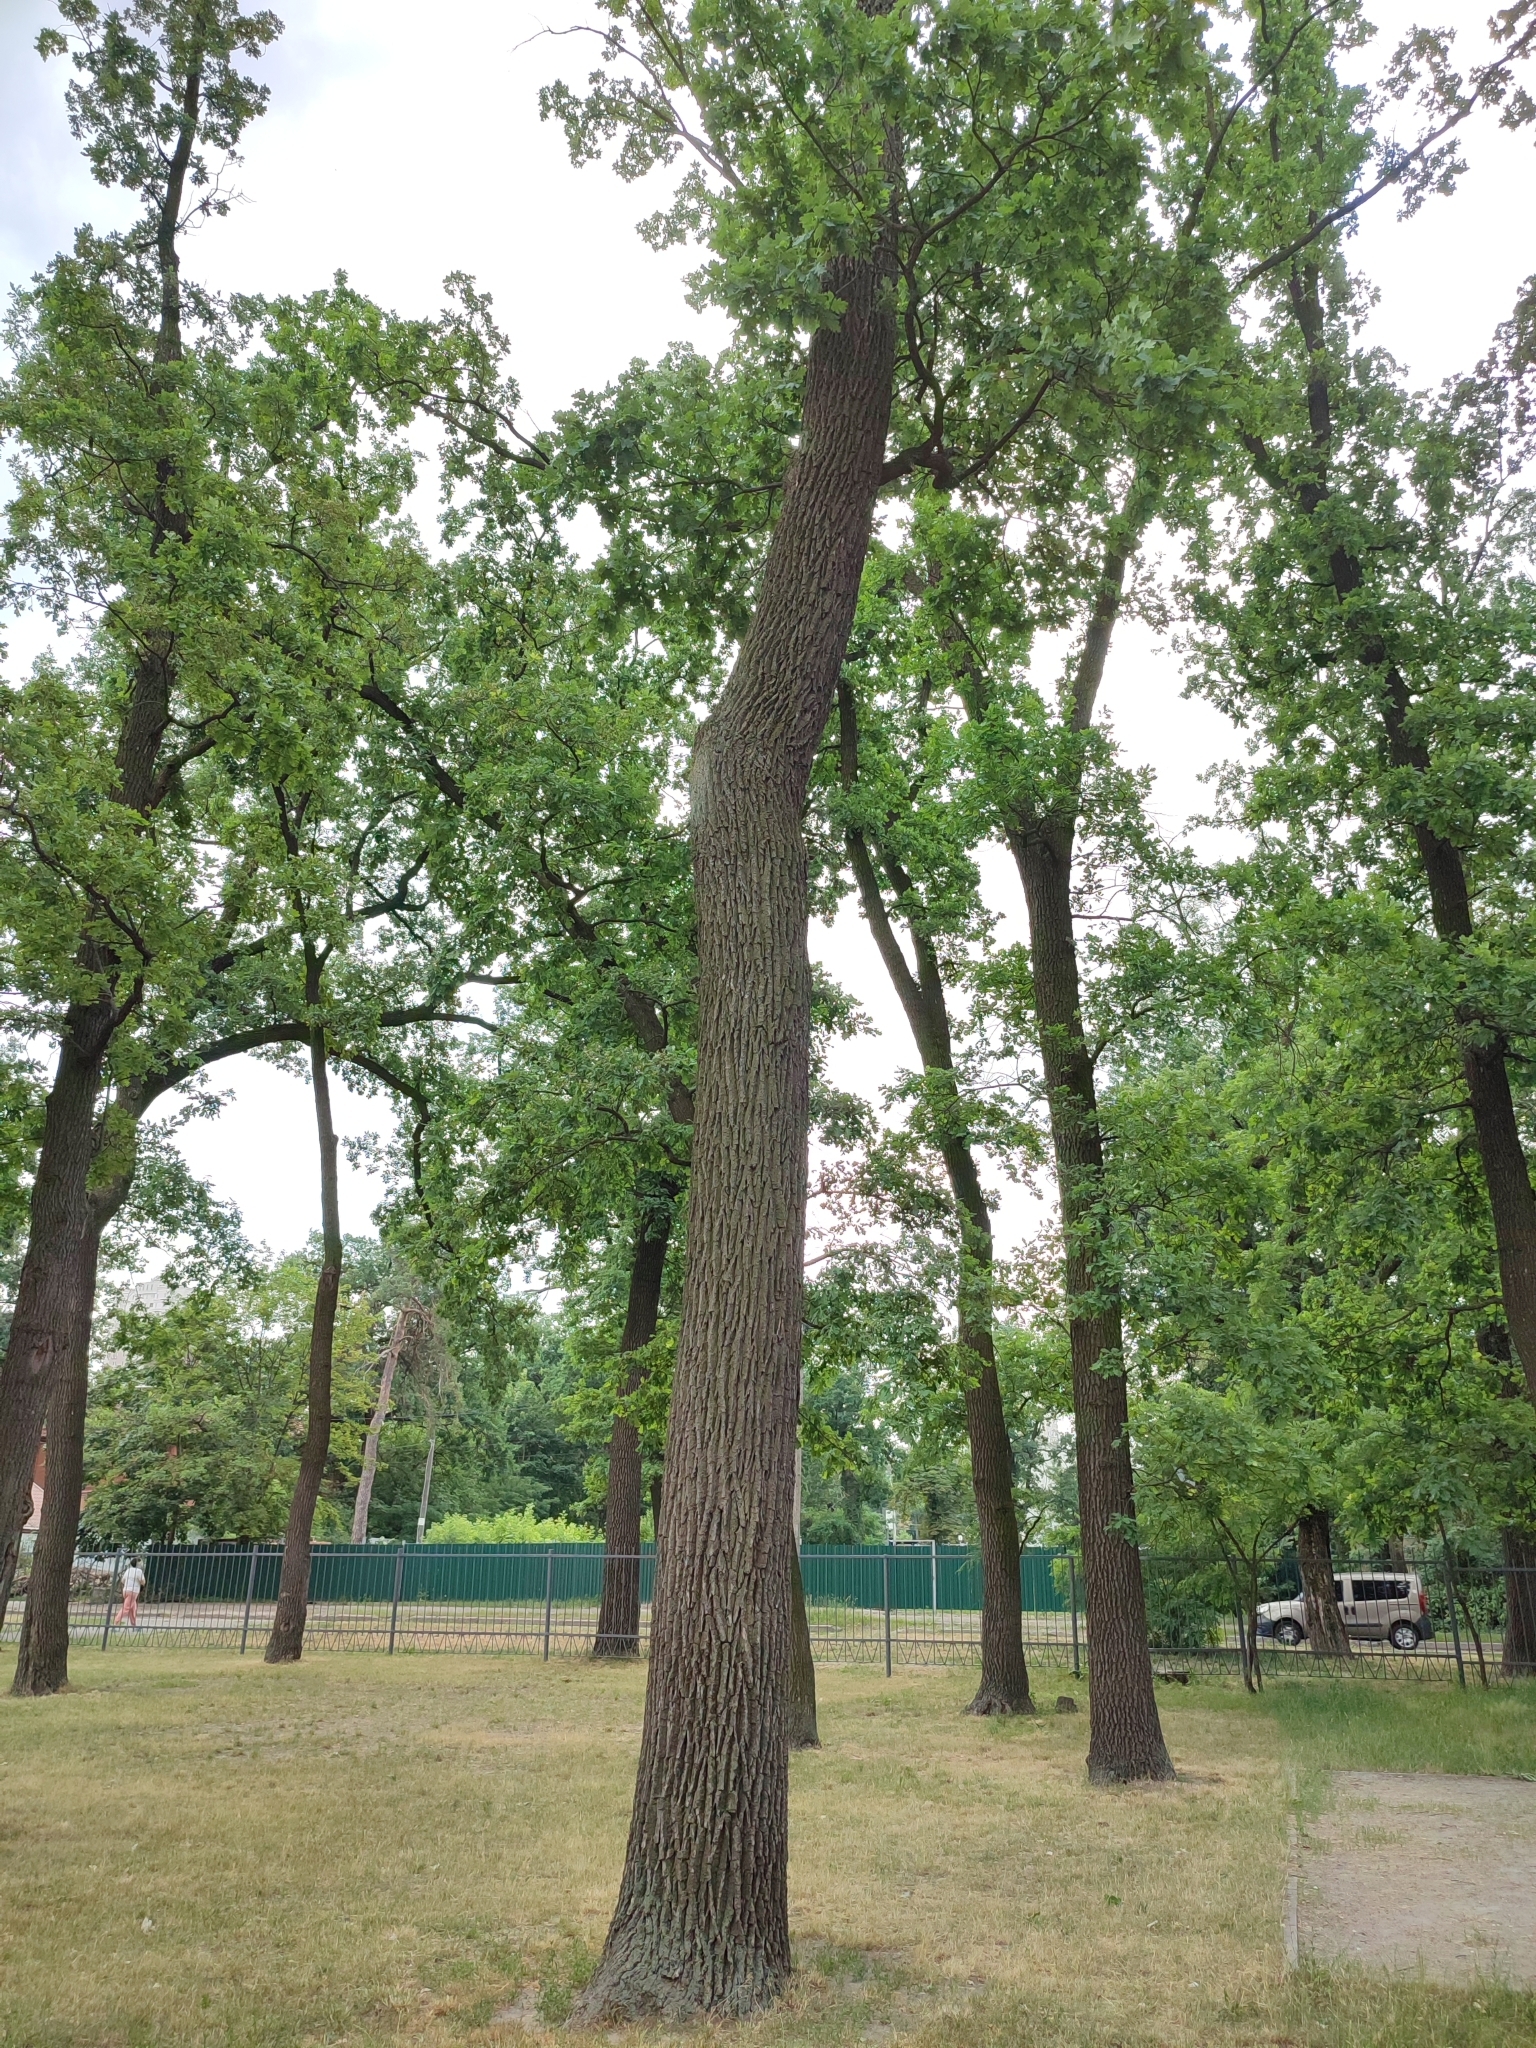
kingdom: Plantae
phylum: Tracheophyta
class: Magnoliopsida
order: Fagales
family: Fagaceae
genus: Quercus
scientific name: Quercus robur
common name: Pedunculate oak
